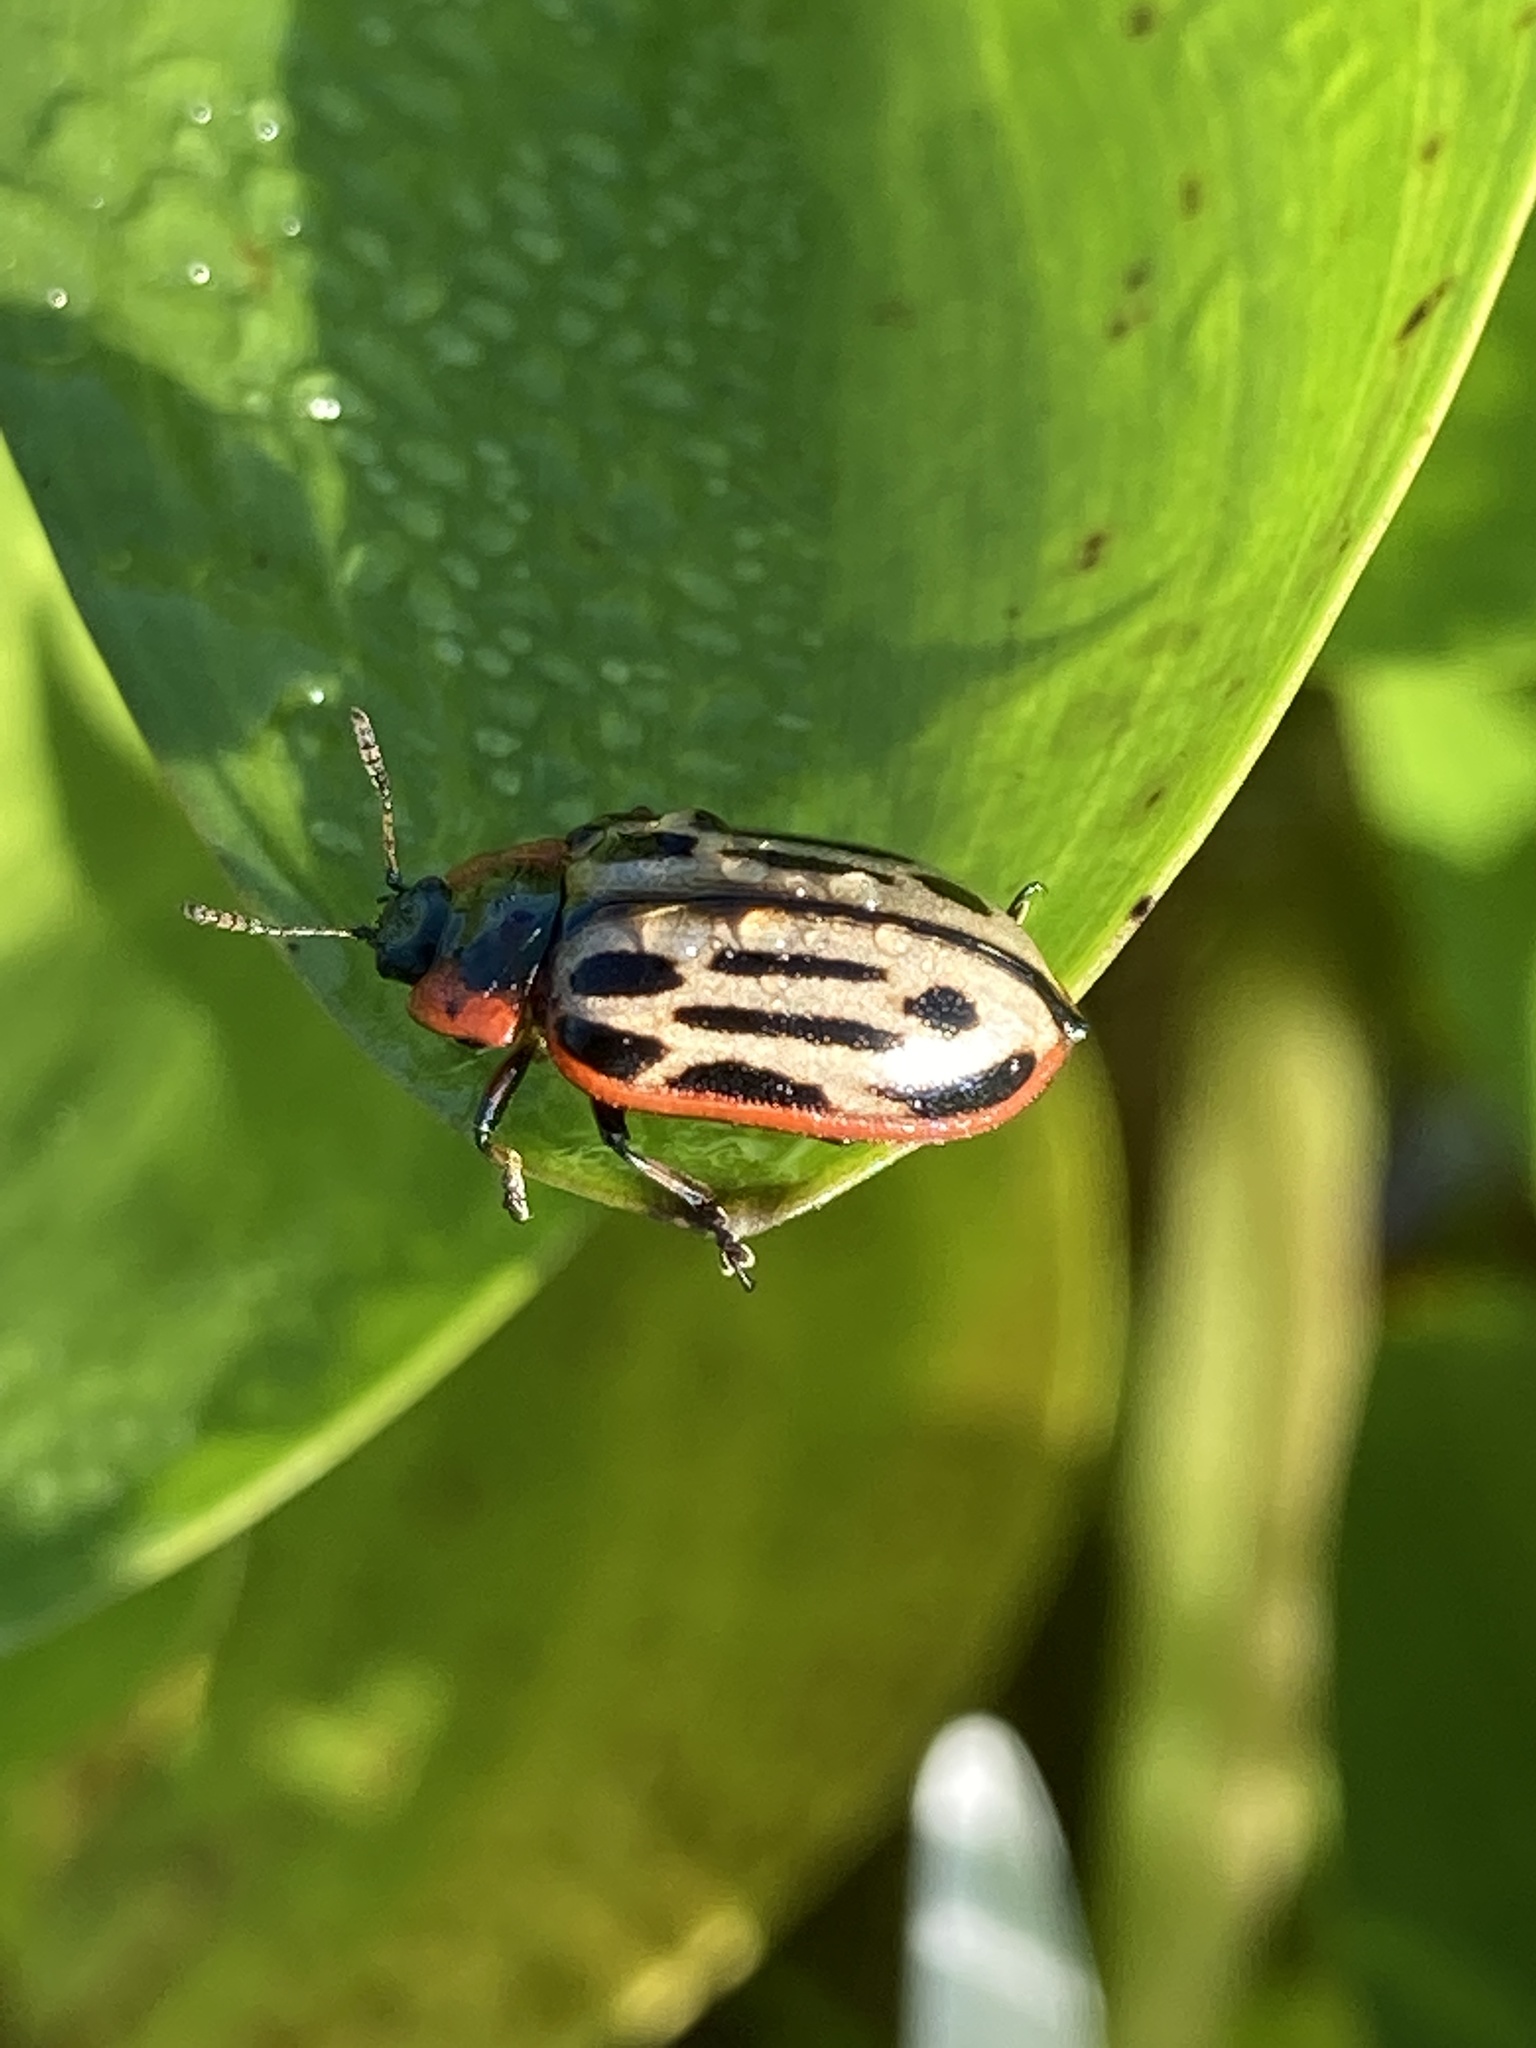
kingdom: Animalia
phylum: Arthropoda
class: Insecta
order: Coleoptera
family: Chrysomelidae
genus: Aethiopocassis
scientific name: Aethiopocassis scripta
